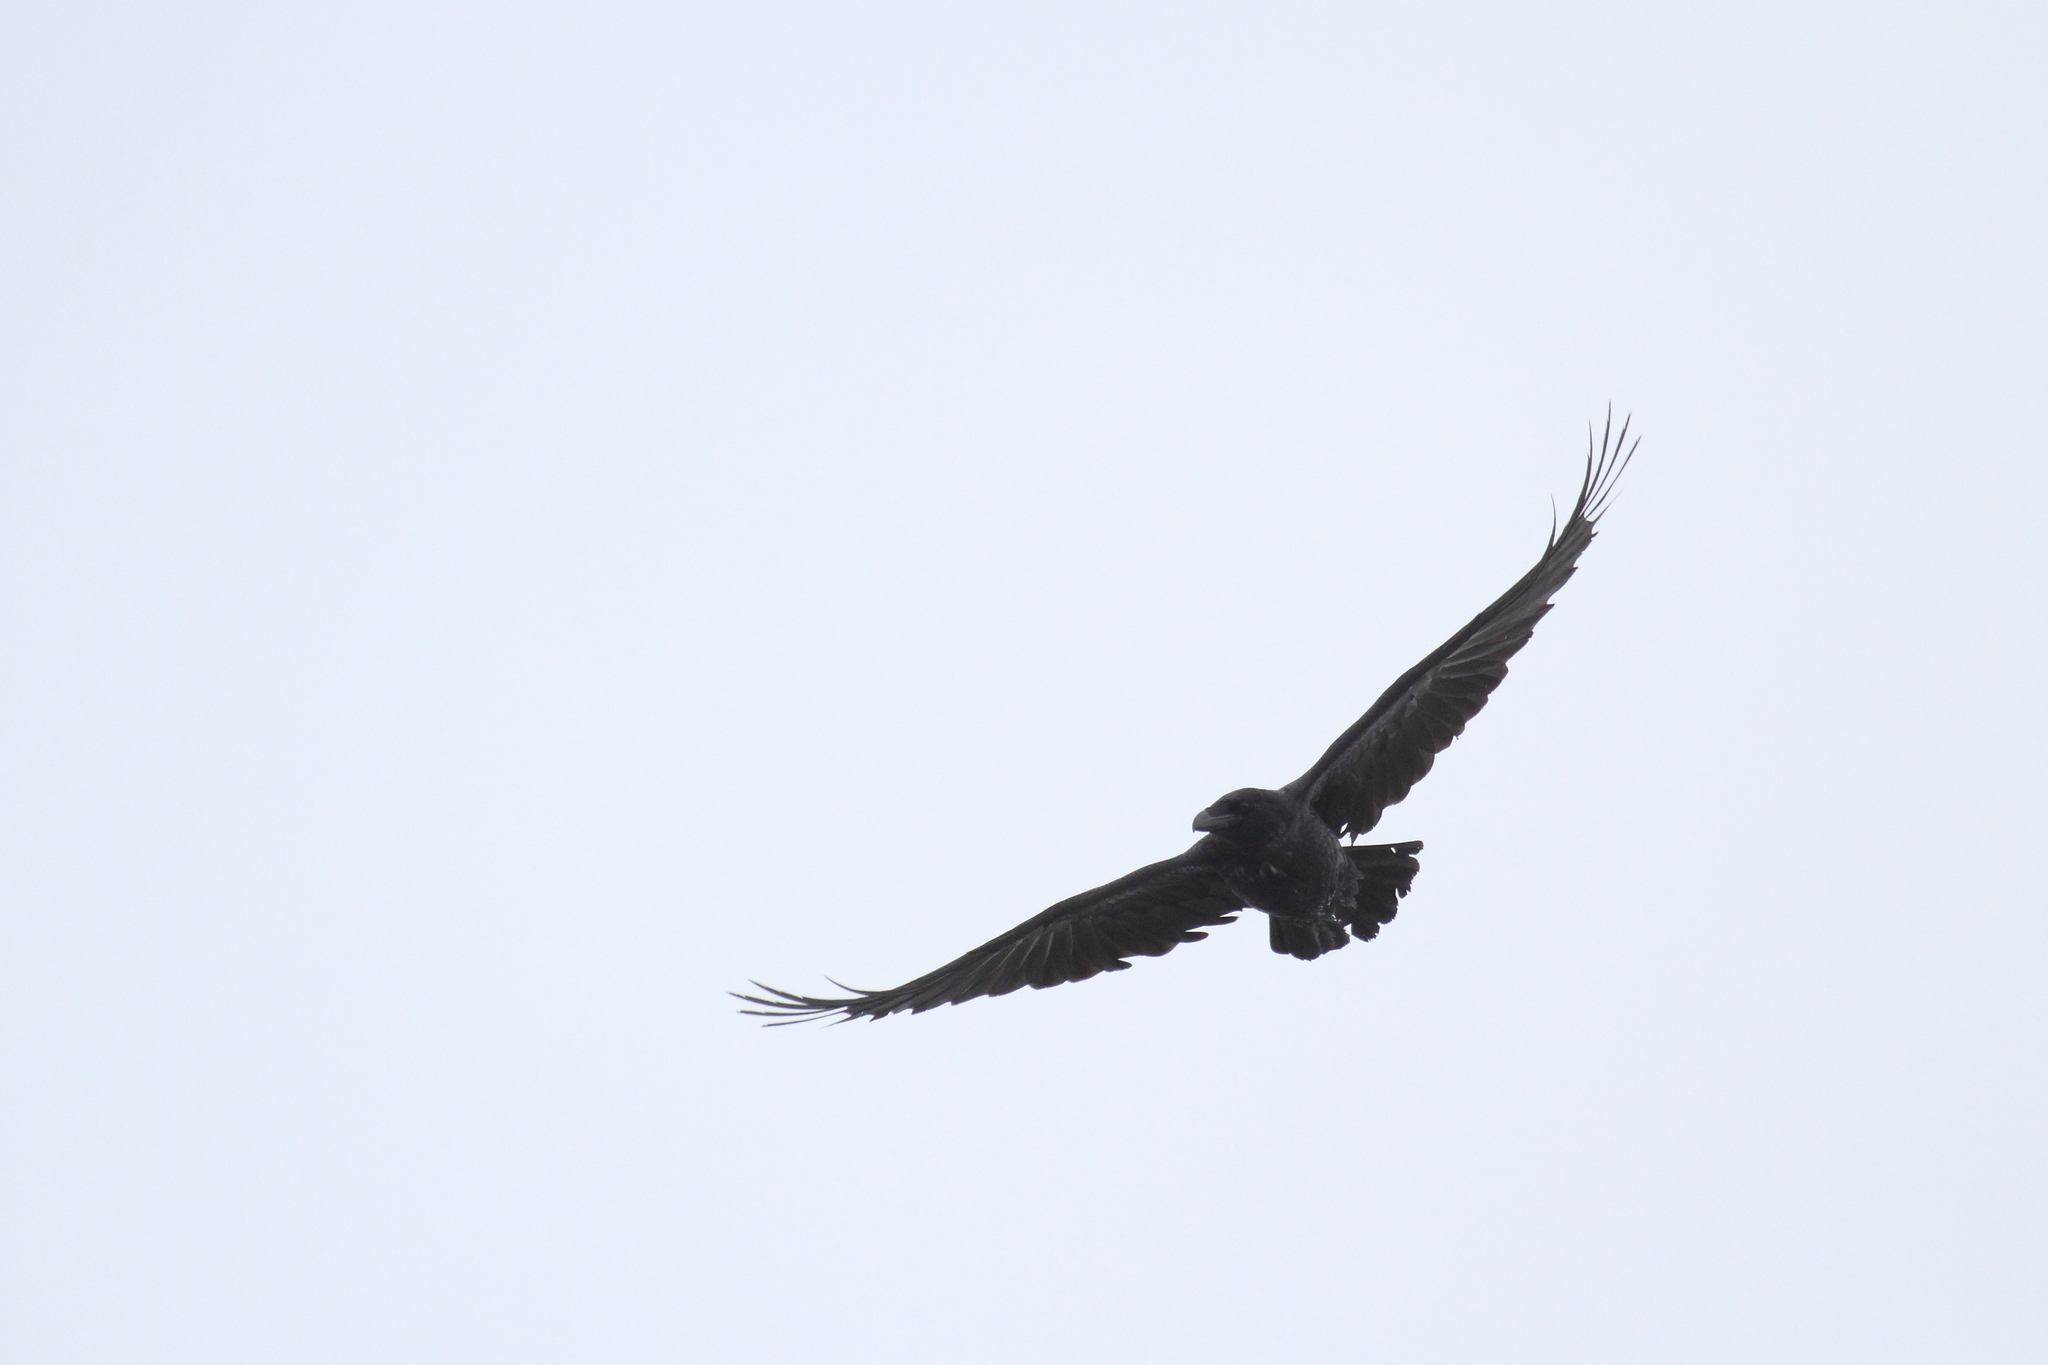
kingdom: Animalia
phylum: Chordata
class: Aves
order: Passeriformes
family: Corvidae
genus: Corvus
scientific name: Corvus corax
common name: Common raven
